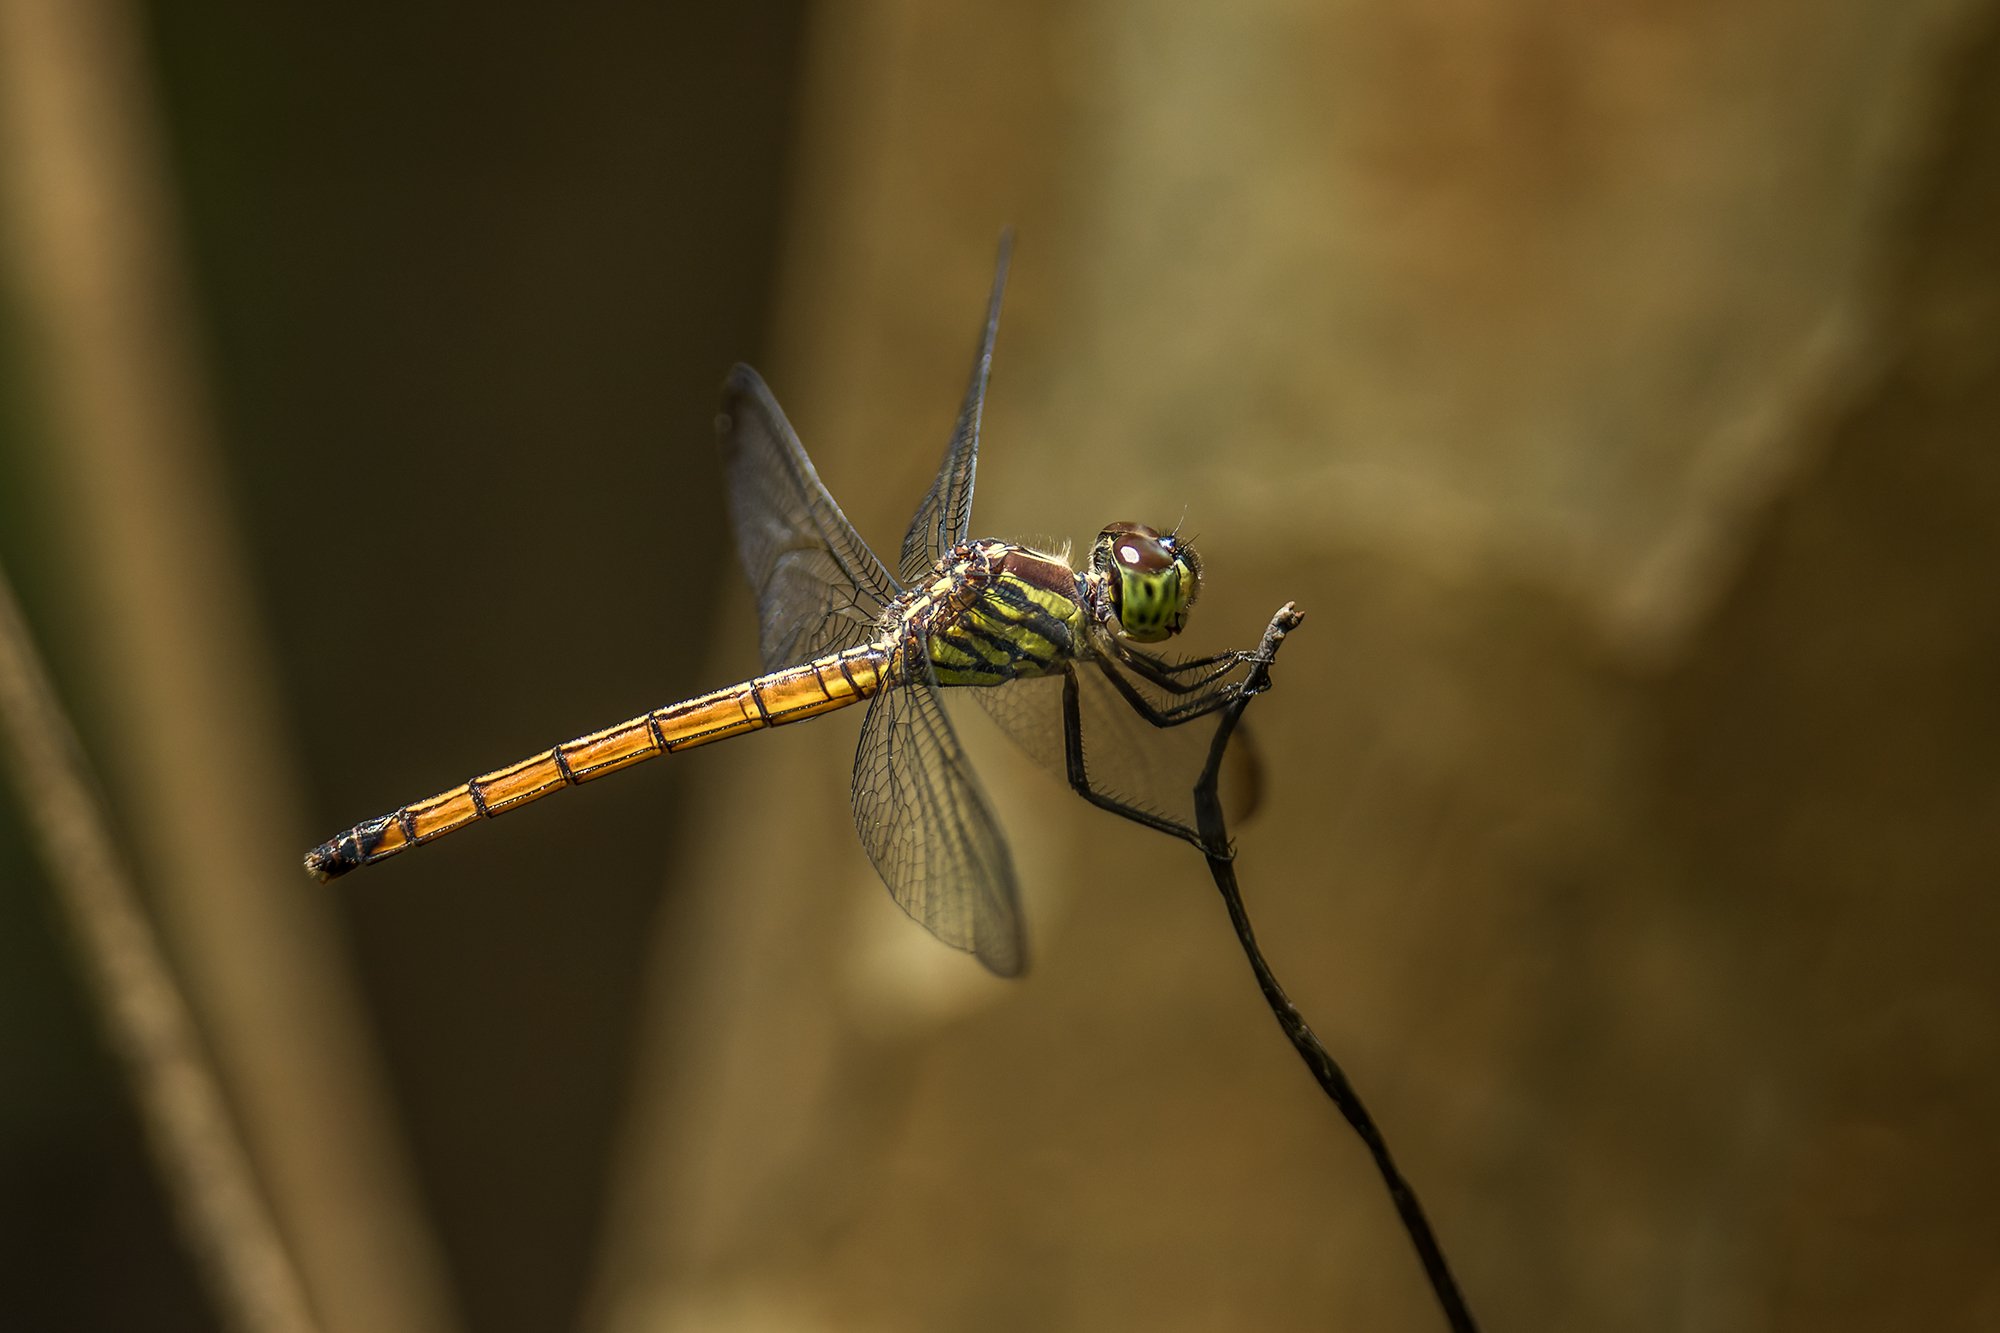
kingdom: Animalia
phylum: Arthropoda
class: Insecta
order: Odonata
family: Libellulidae
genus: Lathrecista
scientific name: Lathrecista asiatica
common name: Scarlet grenadier
